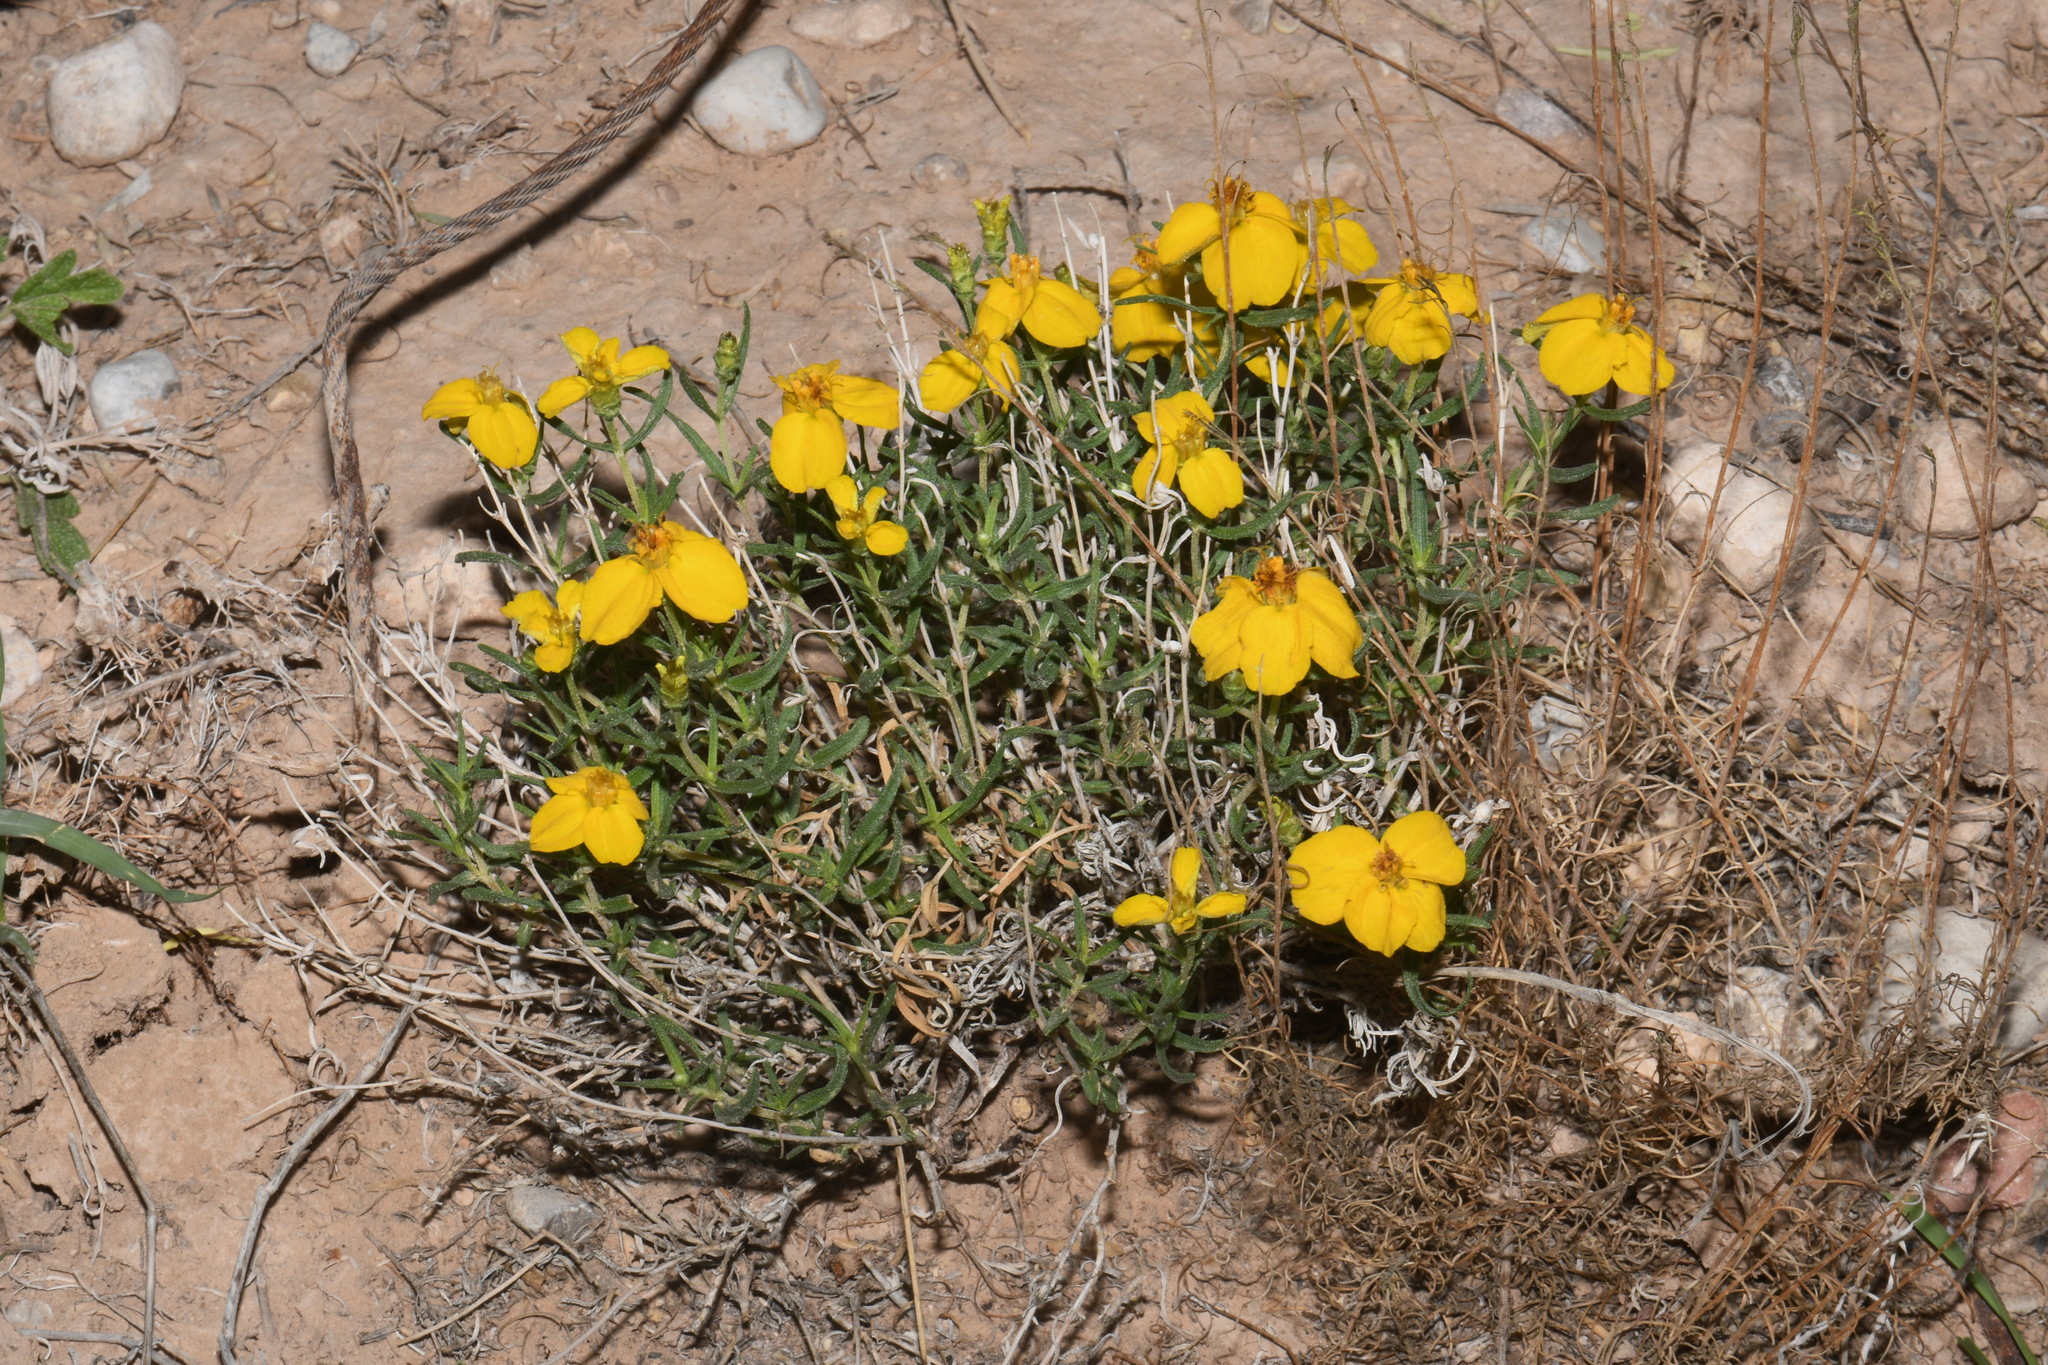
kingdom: Plantae
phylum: Tracheophyta
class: Magnoliopsida
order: Asterales
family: Asteraceae
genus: Zinnia
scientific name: Zinnia grandiflora
